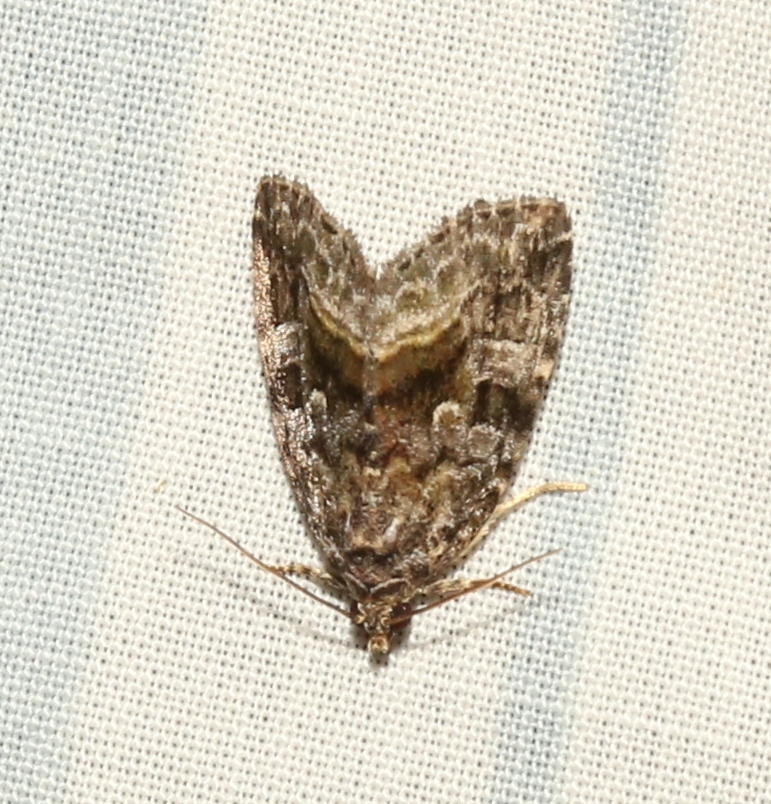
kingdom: Animalia
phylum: Arthropoda
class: Insecta
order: Lepidoptera
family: Noctuidae
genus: Protodeltote
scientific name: Protodeltote muscosula
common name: Large mossy glyph
